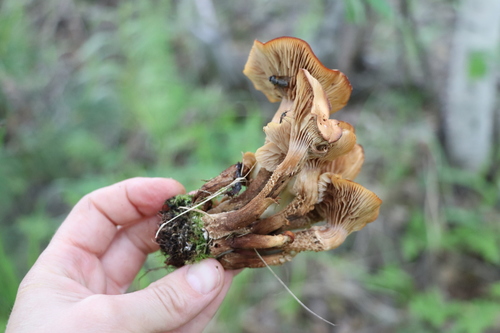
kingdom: Fungi
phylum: Basidiomycota
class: Agaricomycetes
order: Agaricales
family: Strophariaceae
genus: Kuehneromyces
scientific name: Kuehneromyces mutabilis
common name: Sheathed woodtuft
